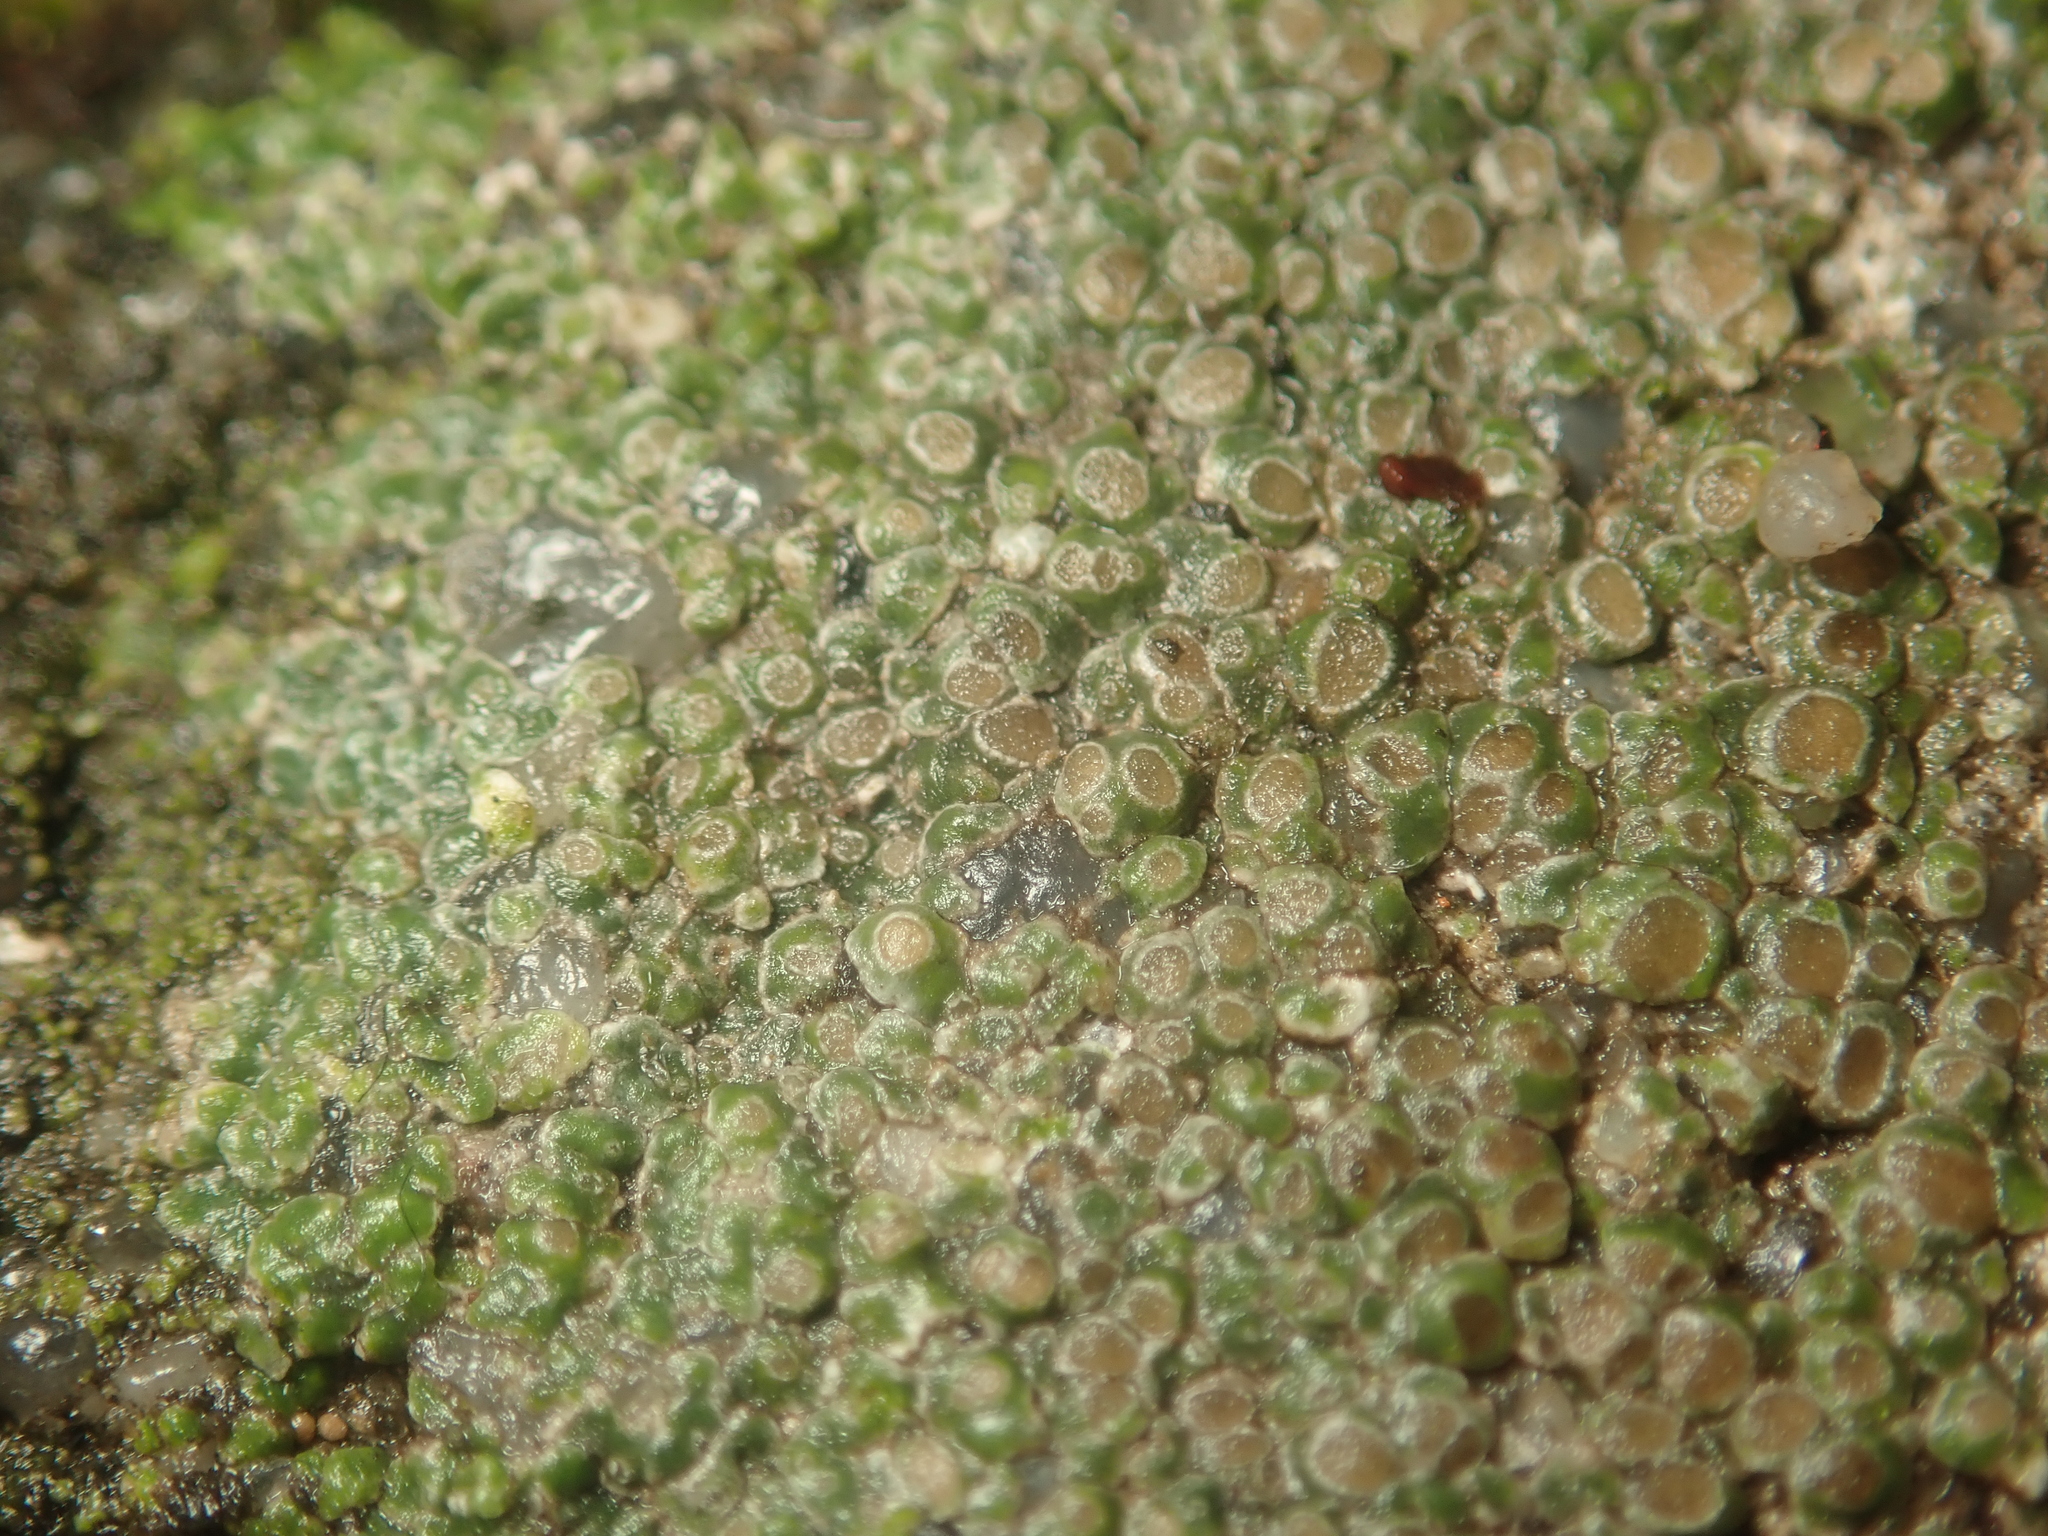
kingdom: Fungi
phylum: Ascomycota
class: Lecanoromycetes
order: Pertusariales
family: Megasporaceae
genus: Circinaria
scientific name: Circinaria contorta
